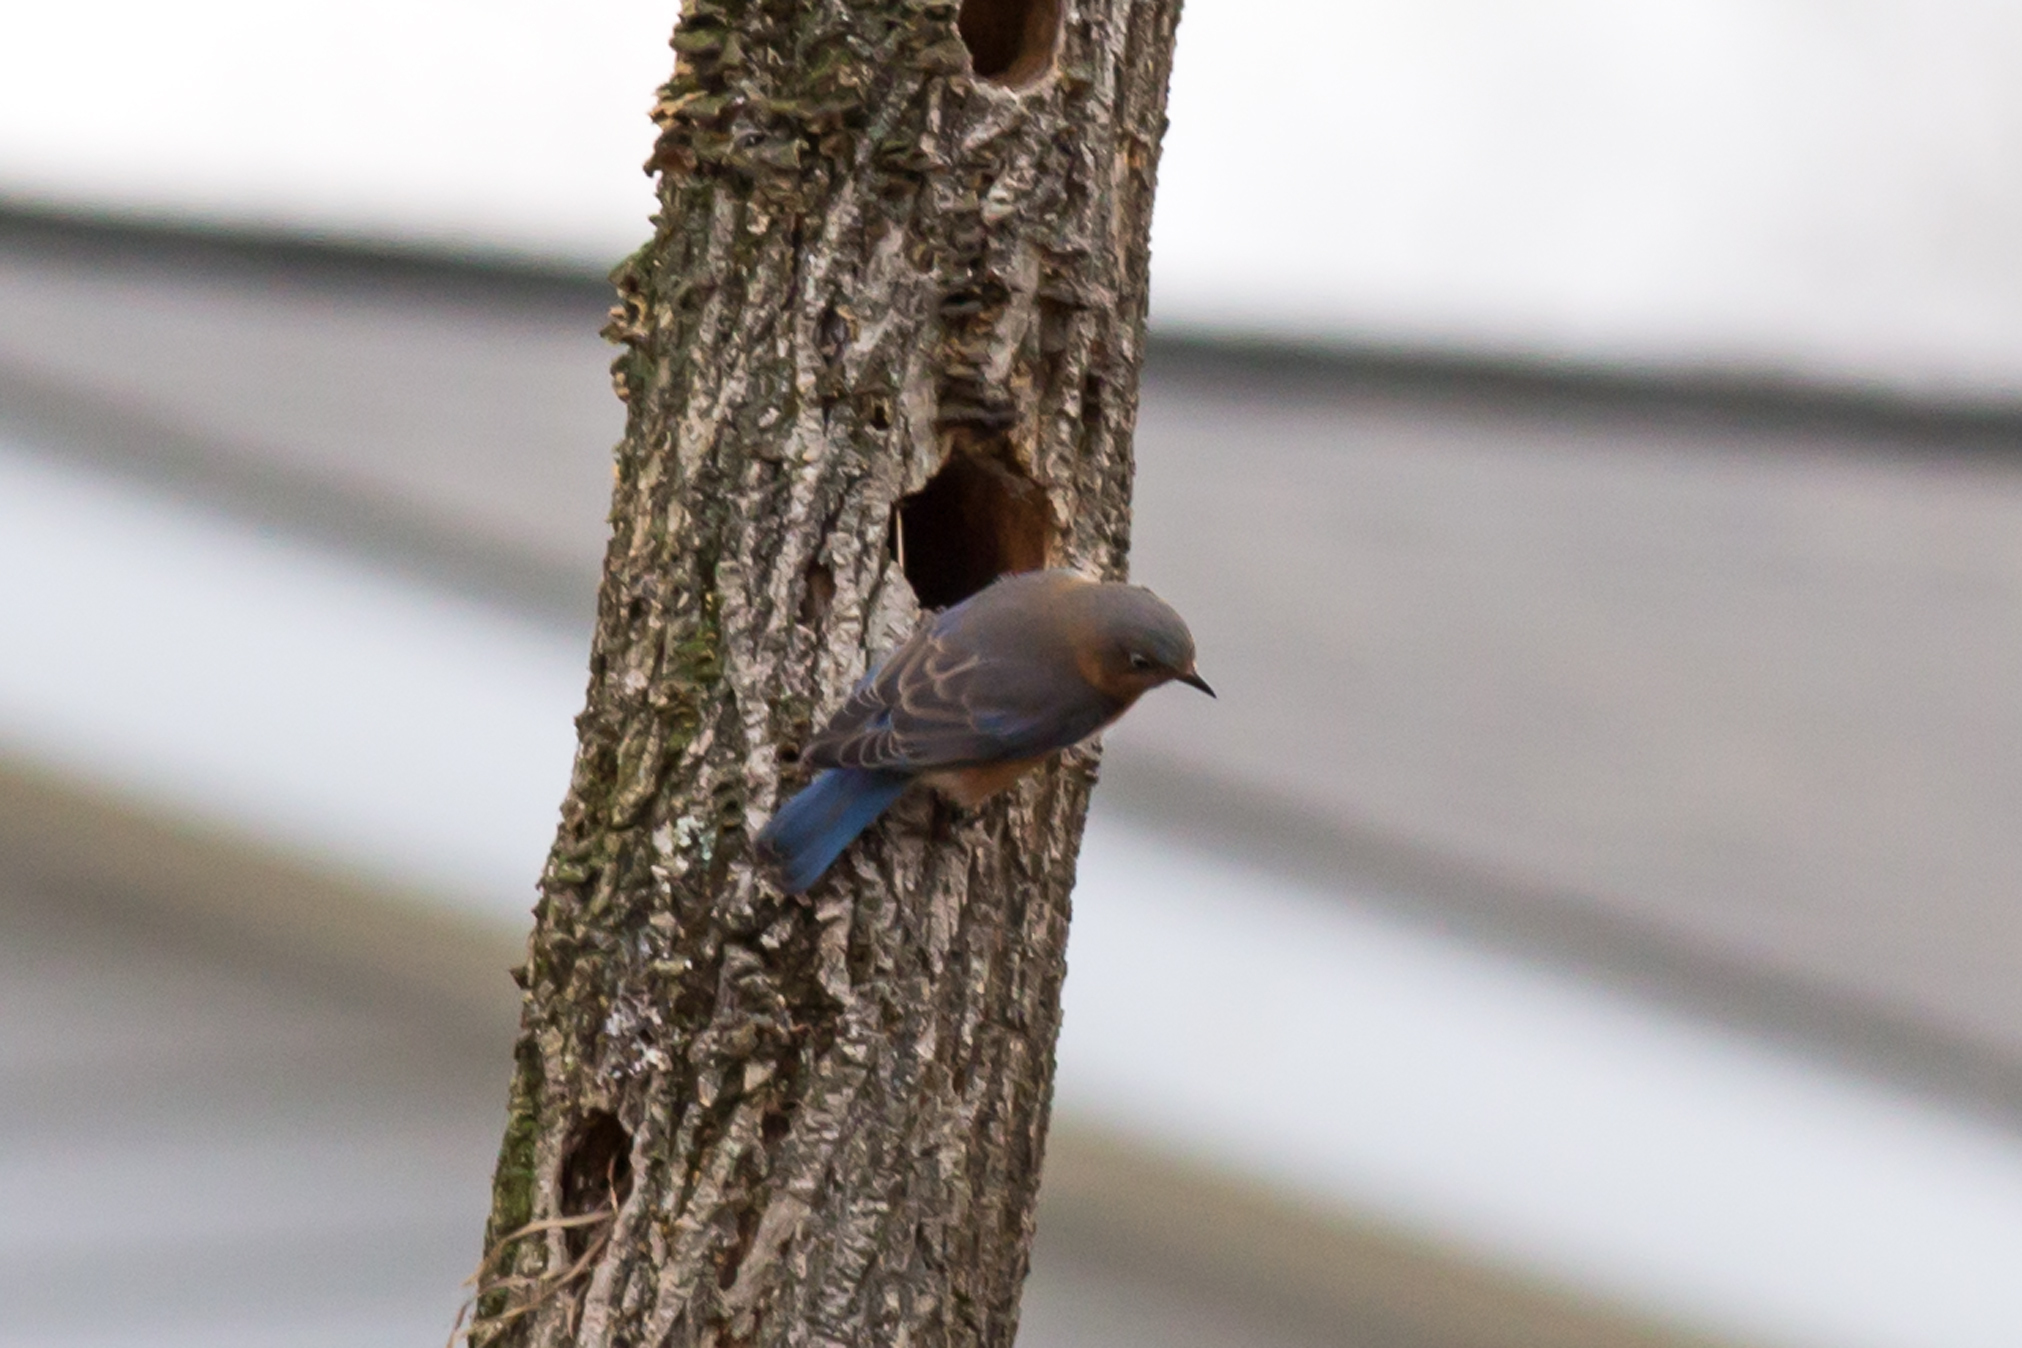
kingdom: Animalia
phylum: Chordata
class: Aves
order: Passeriformes
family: Turdidae
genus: Sialia
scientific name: Sialia sialis
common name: Eastern bluebird
